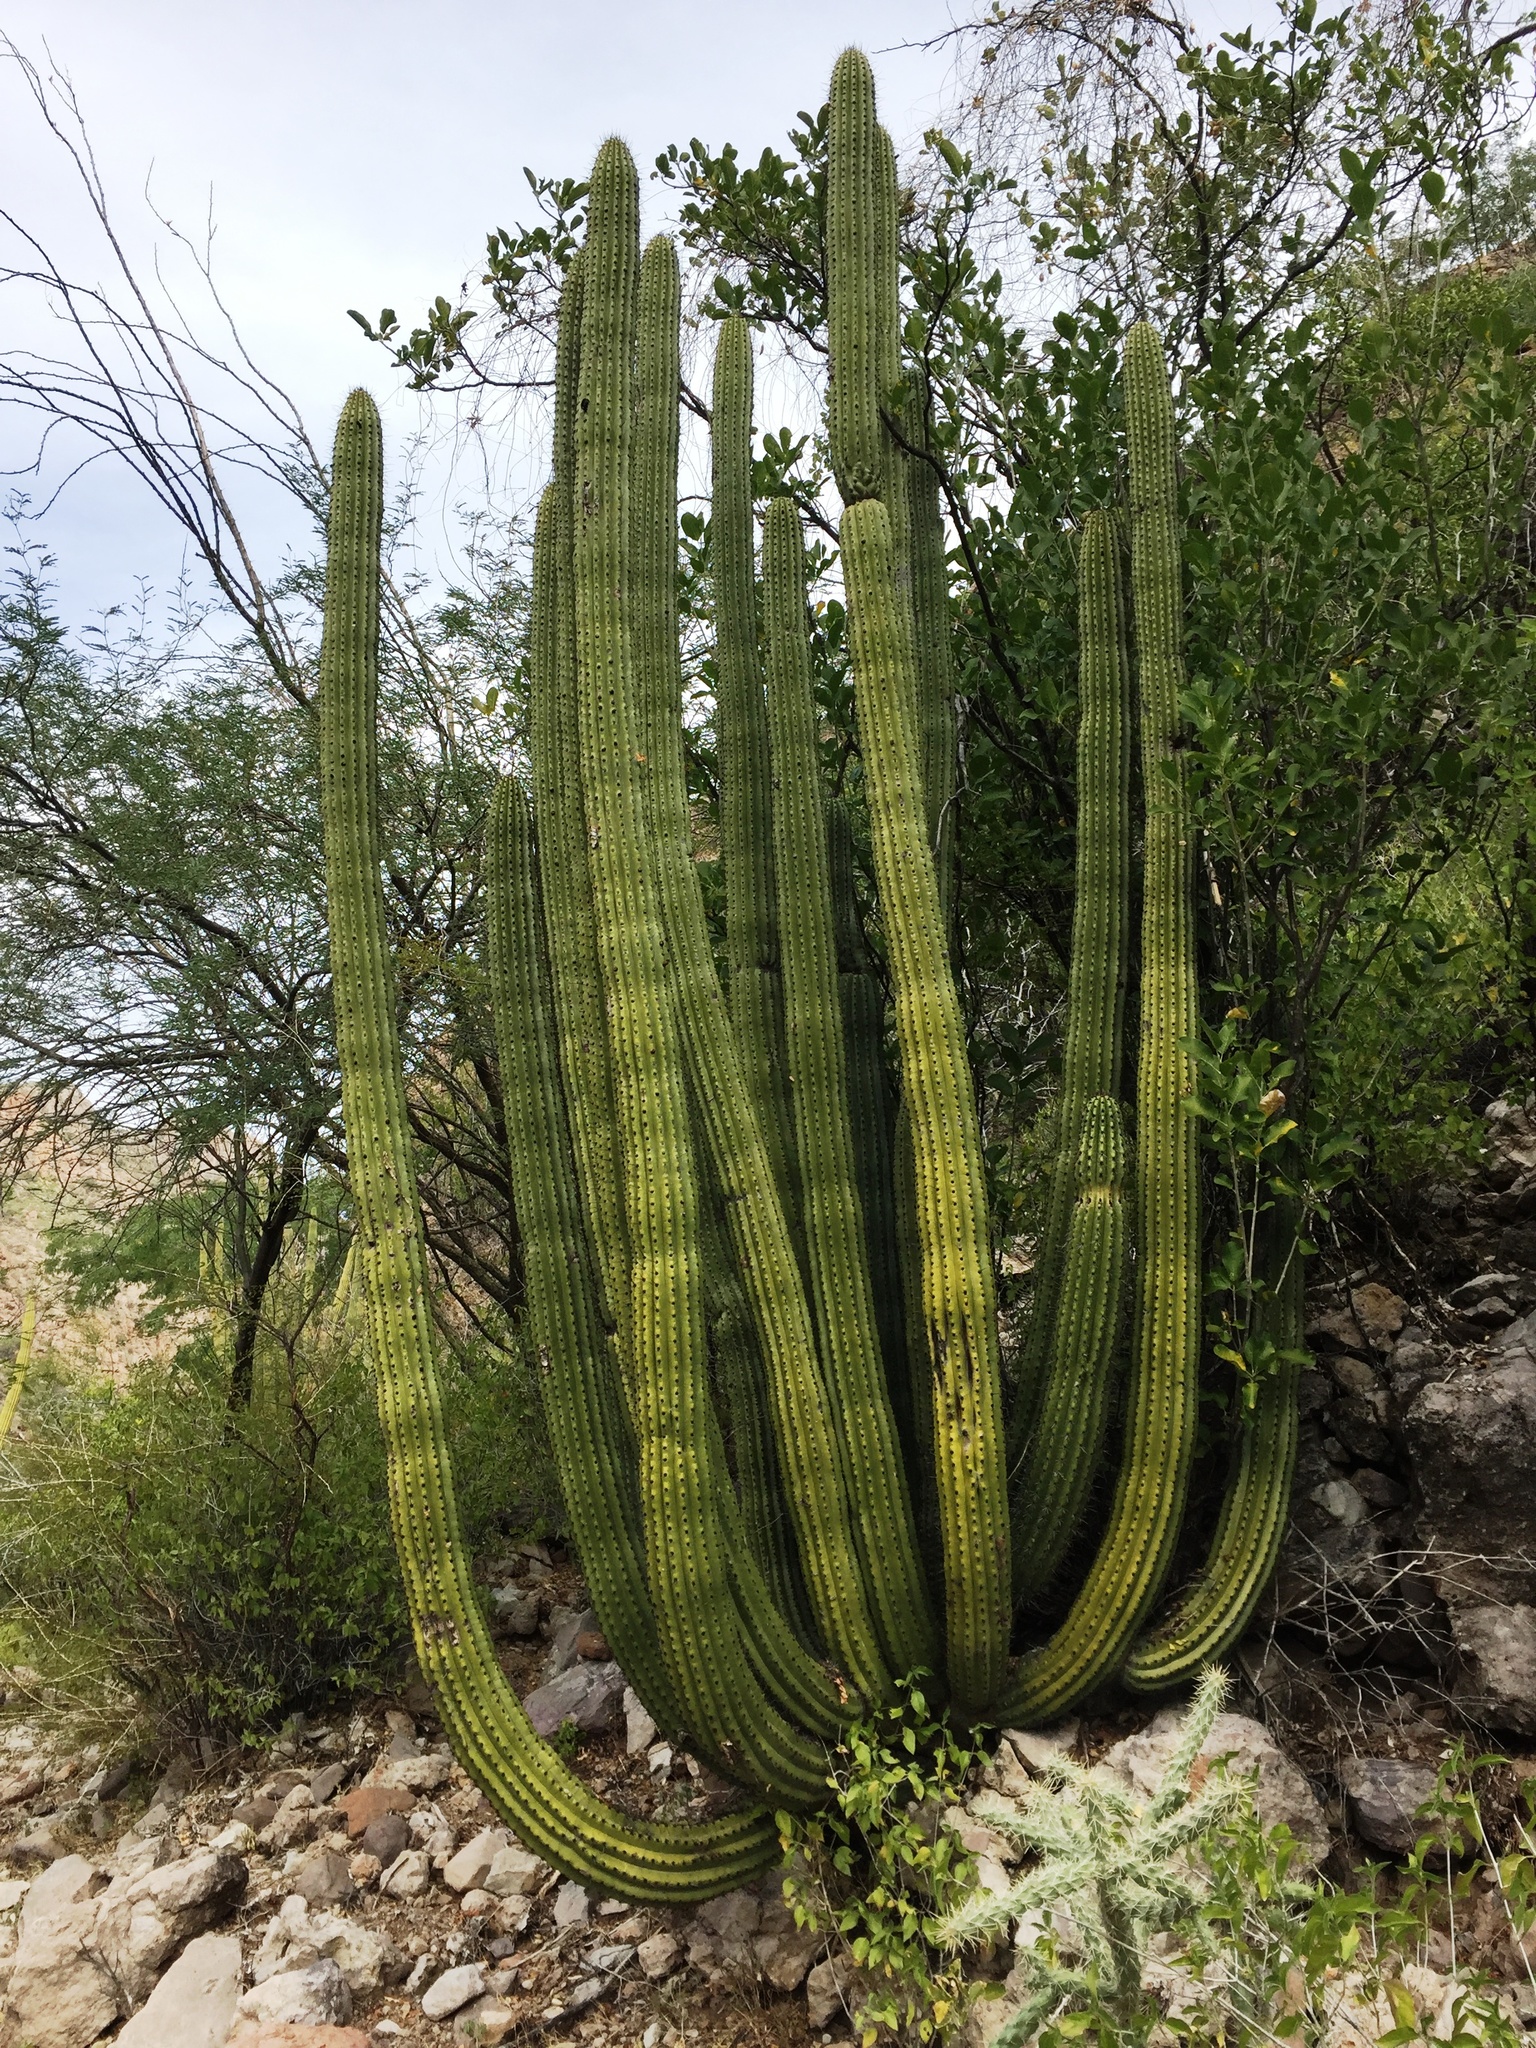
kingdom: Plantae
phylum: Tracheophyta
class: Magnoliopsida
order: Caryophyllales
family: Cactaceae
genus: Stenocereus
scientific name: Stenocereus thurberi
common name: Organ pipe cactus
